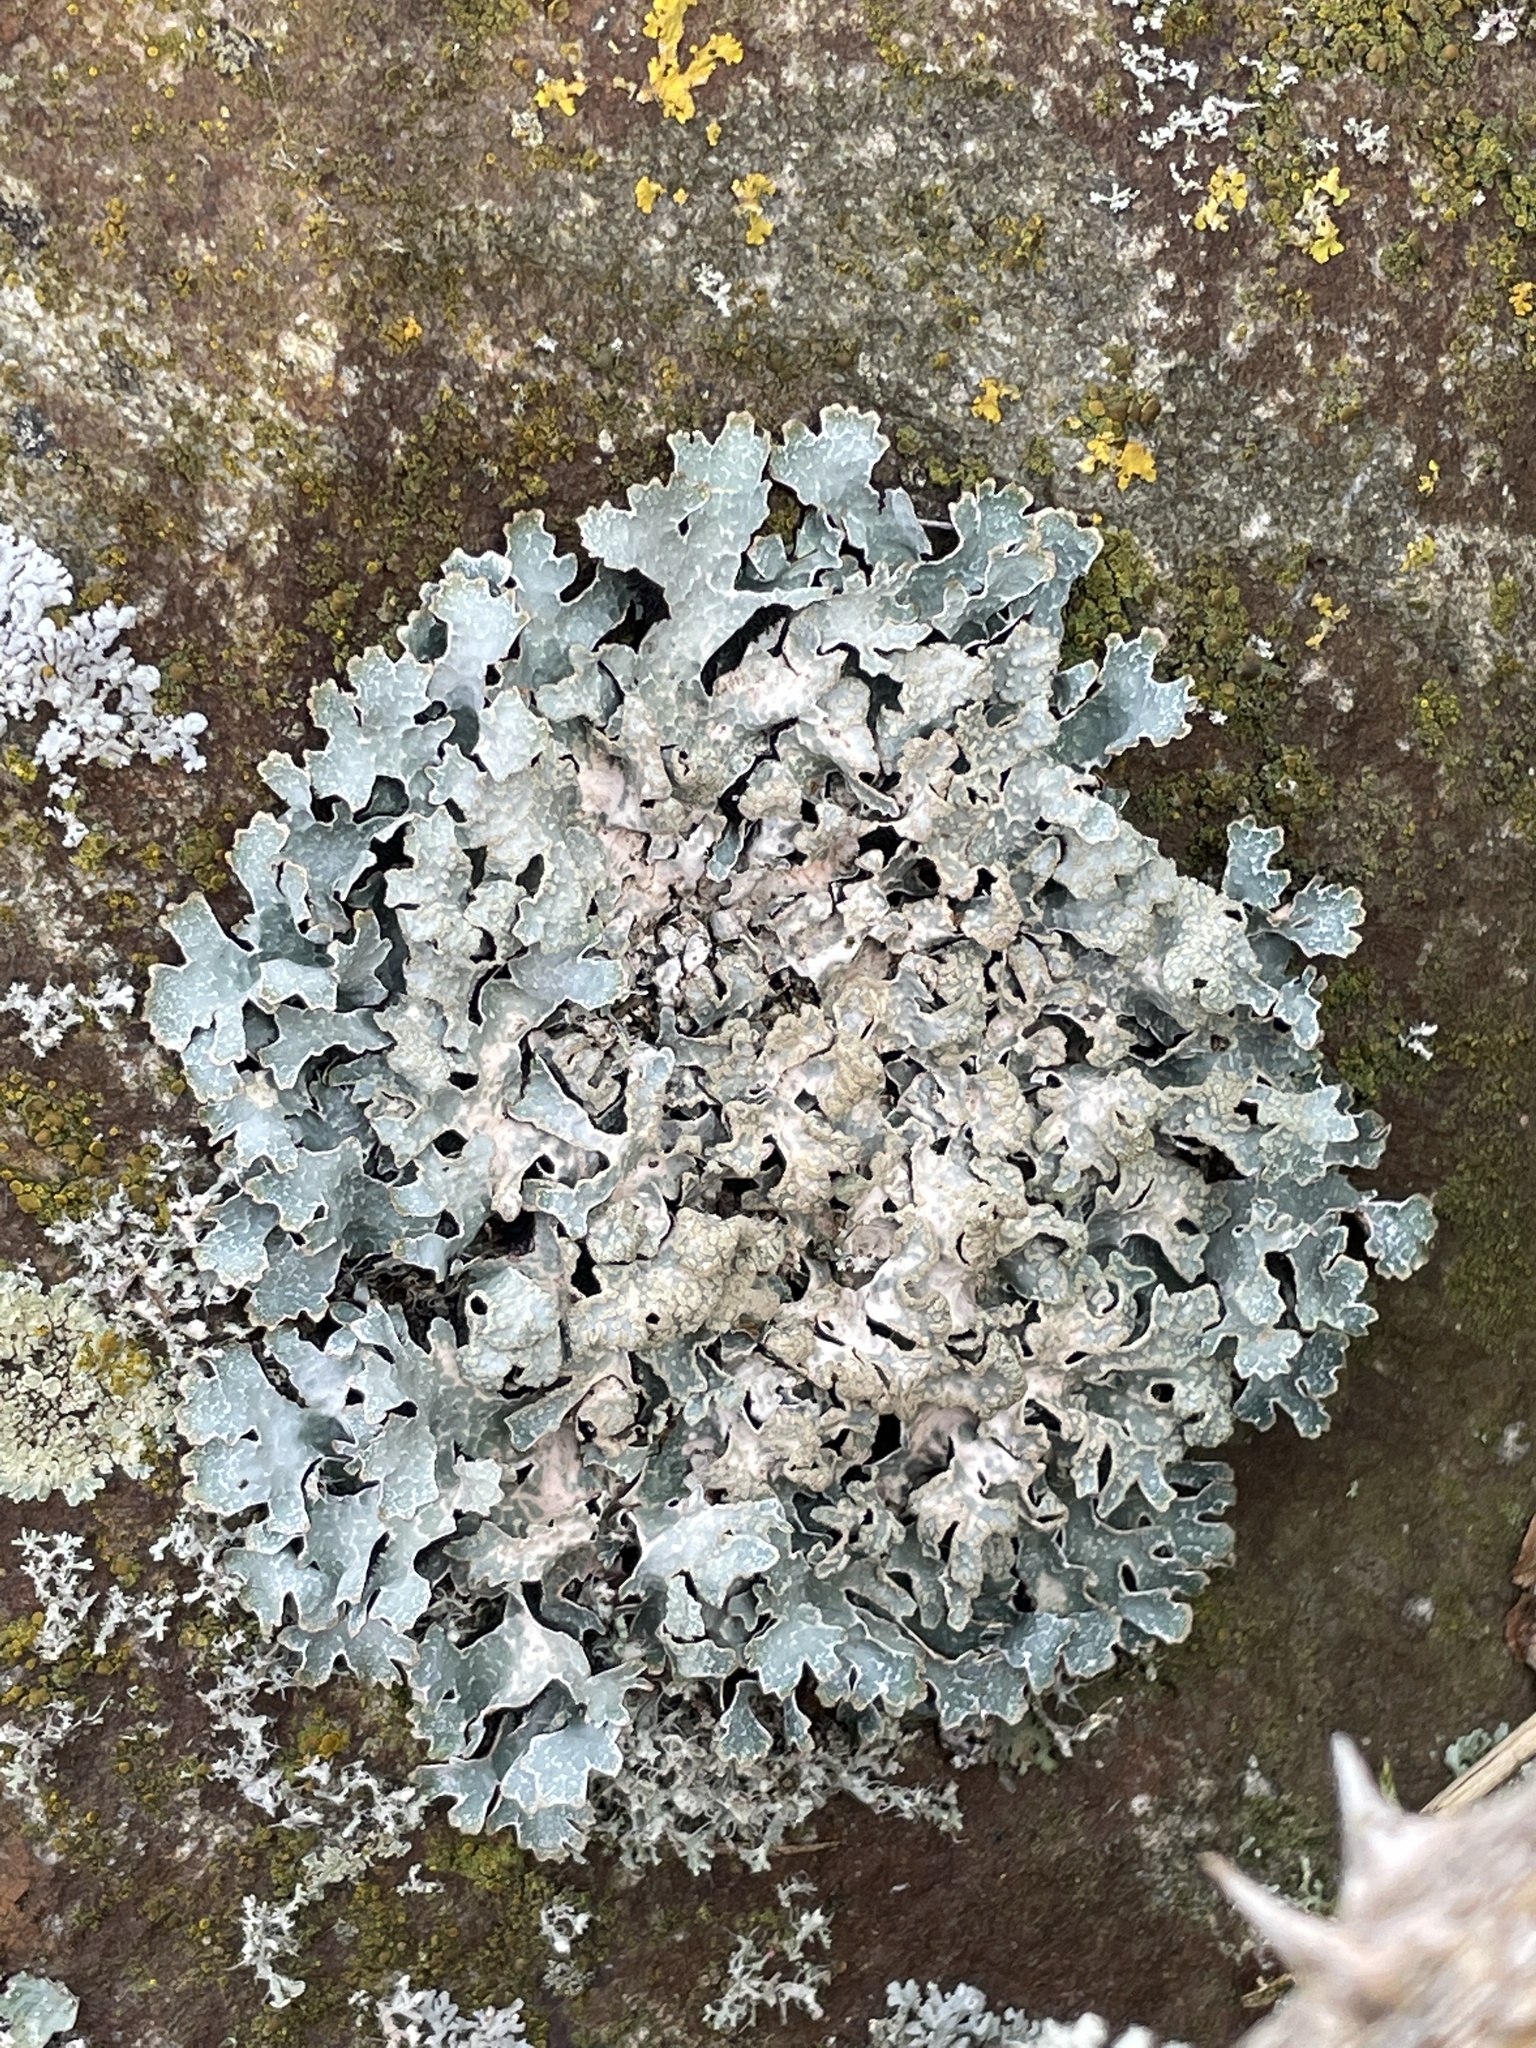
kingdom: Fungi
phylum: Ascomycota
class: Lecanoromycetes
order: Lecanorales
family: Parmeliaceae
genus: Parmelia
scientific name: Parmelia sulcata
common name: Netted shield lichen
